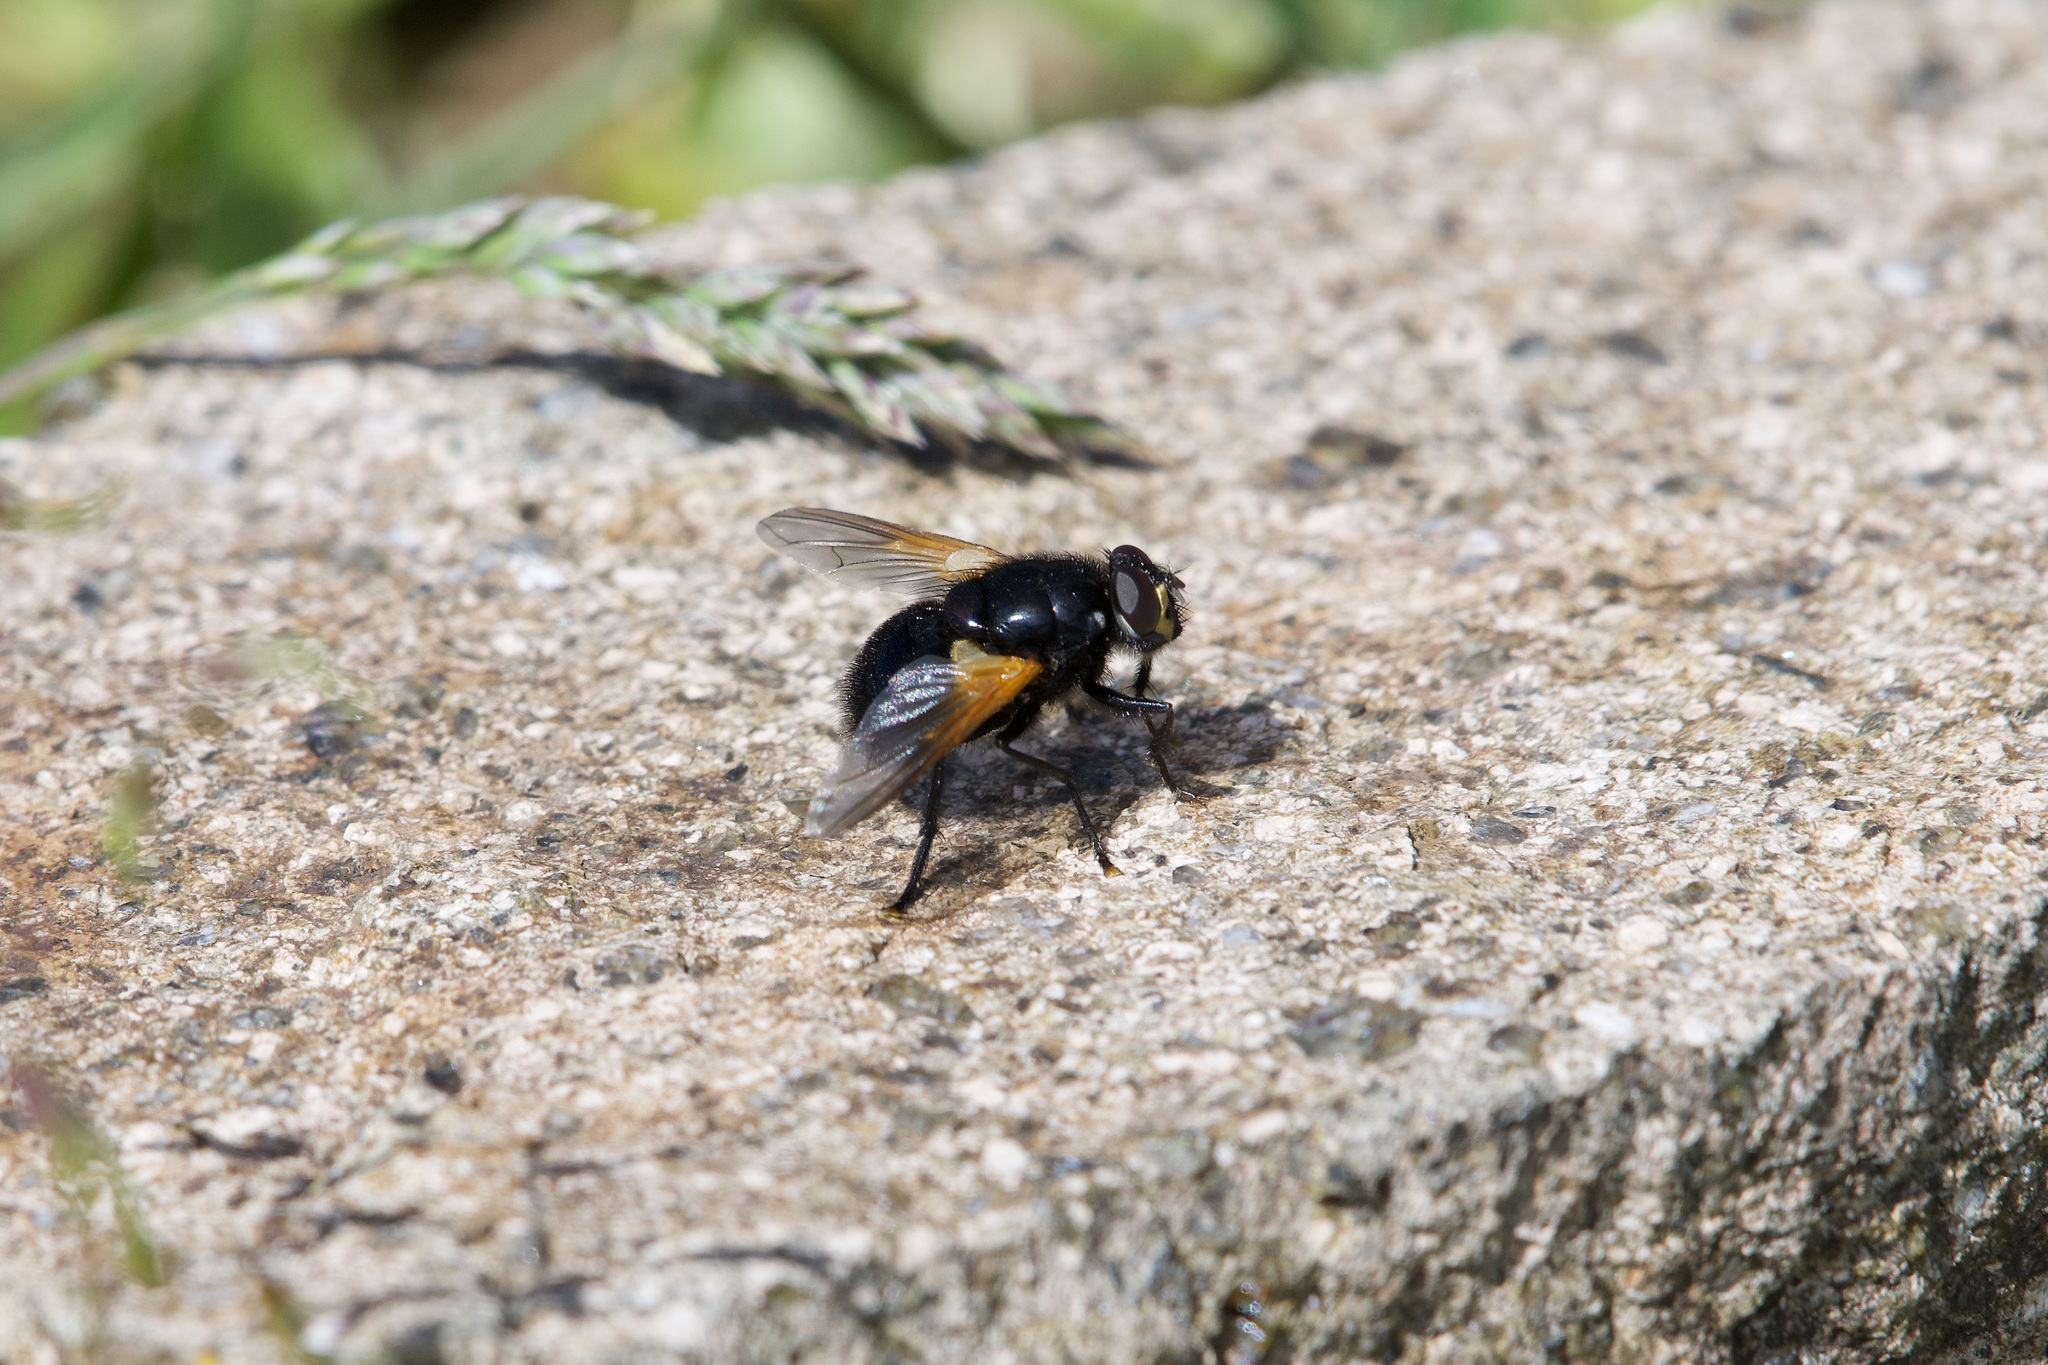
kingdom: Animalia
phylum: Arthropoda
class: Insecta
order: Diptera
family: Muscidae
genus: Mesembrina
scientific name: Mesembrina meridiana
